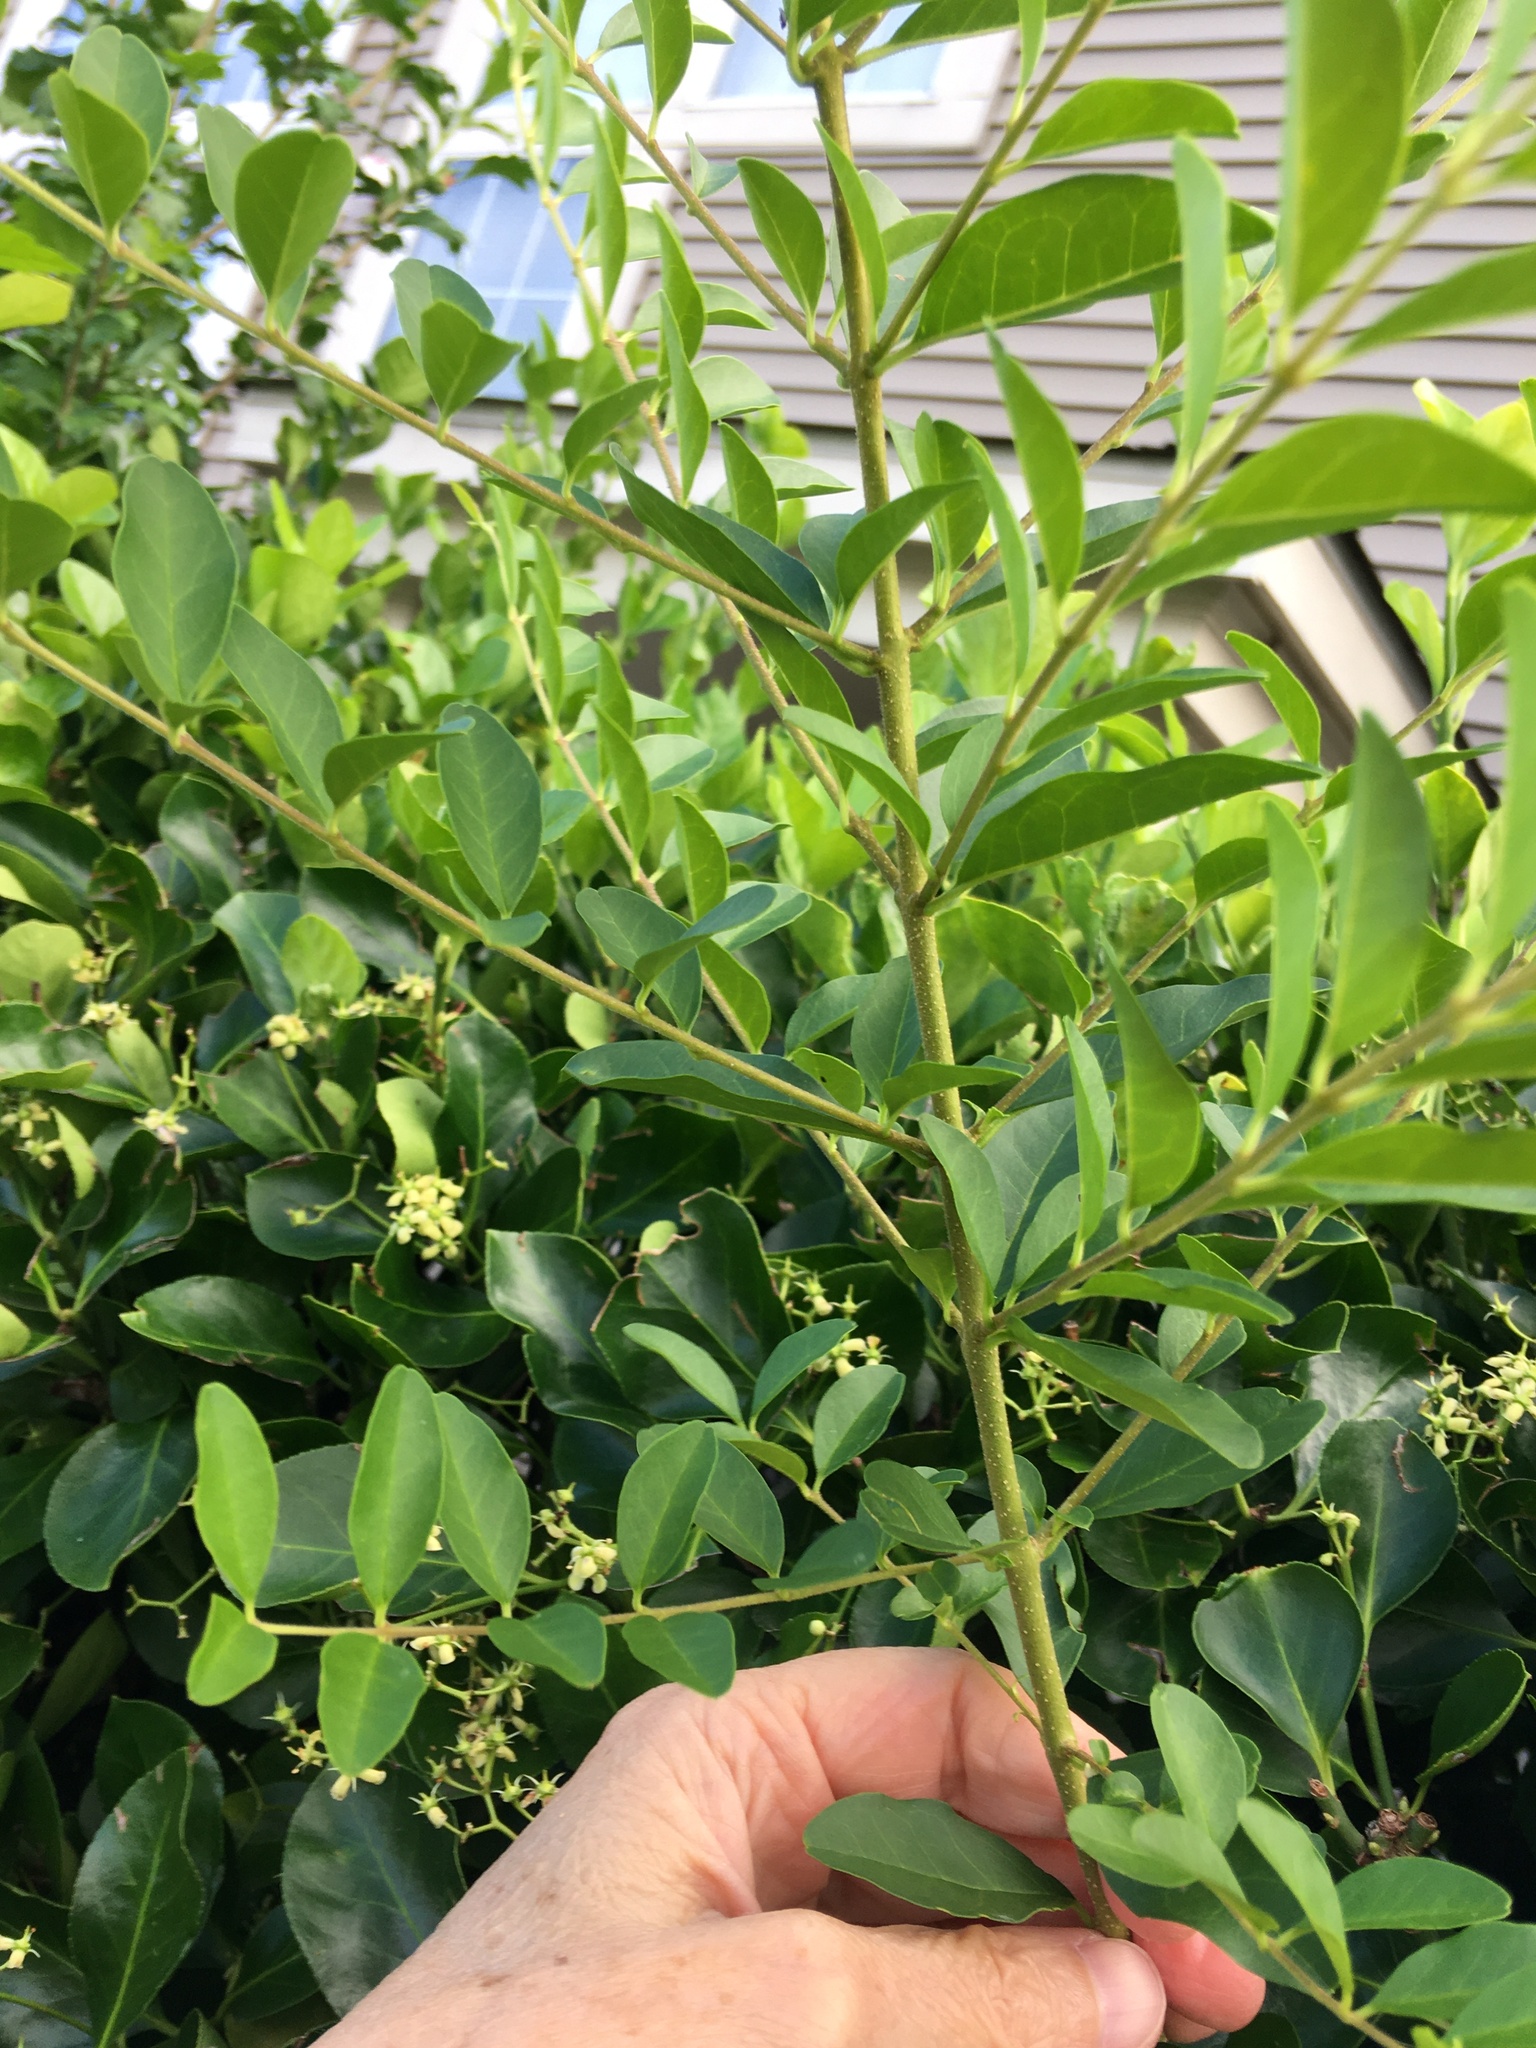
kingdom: Plantae
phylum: Tracheophyta
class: Magnoliopsida
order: Lamiales
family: Oleaceae
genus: Ligustrum
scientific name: Ligustrum sinense
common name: Chinese privet
